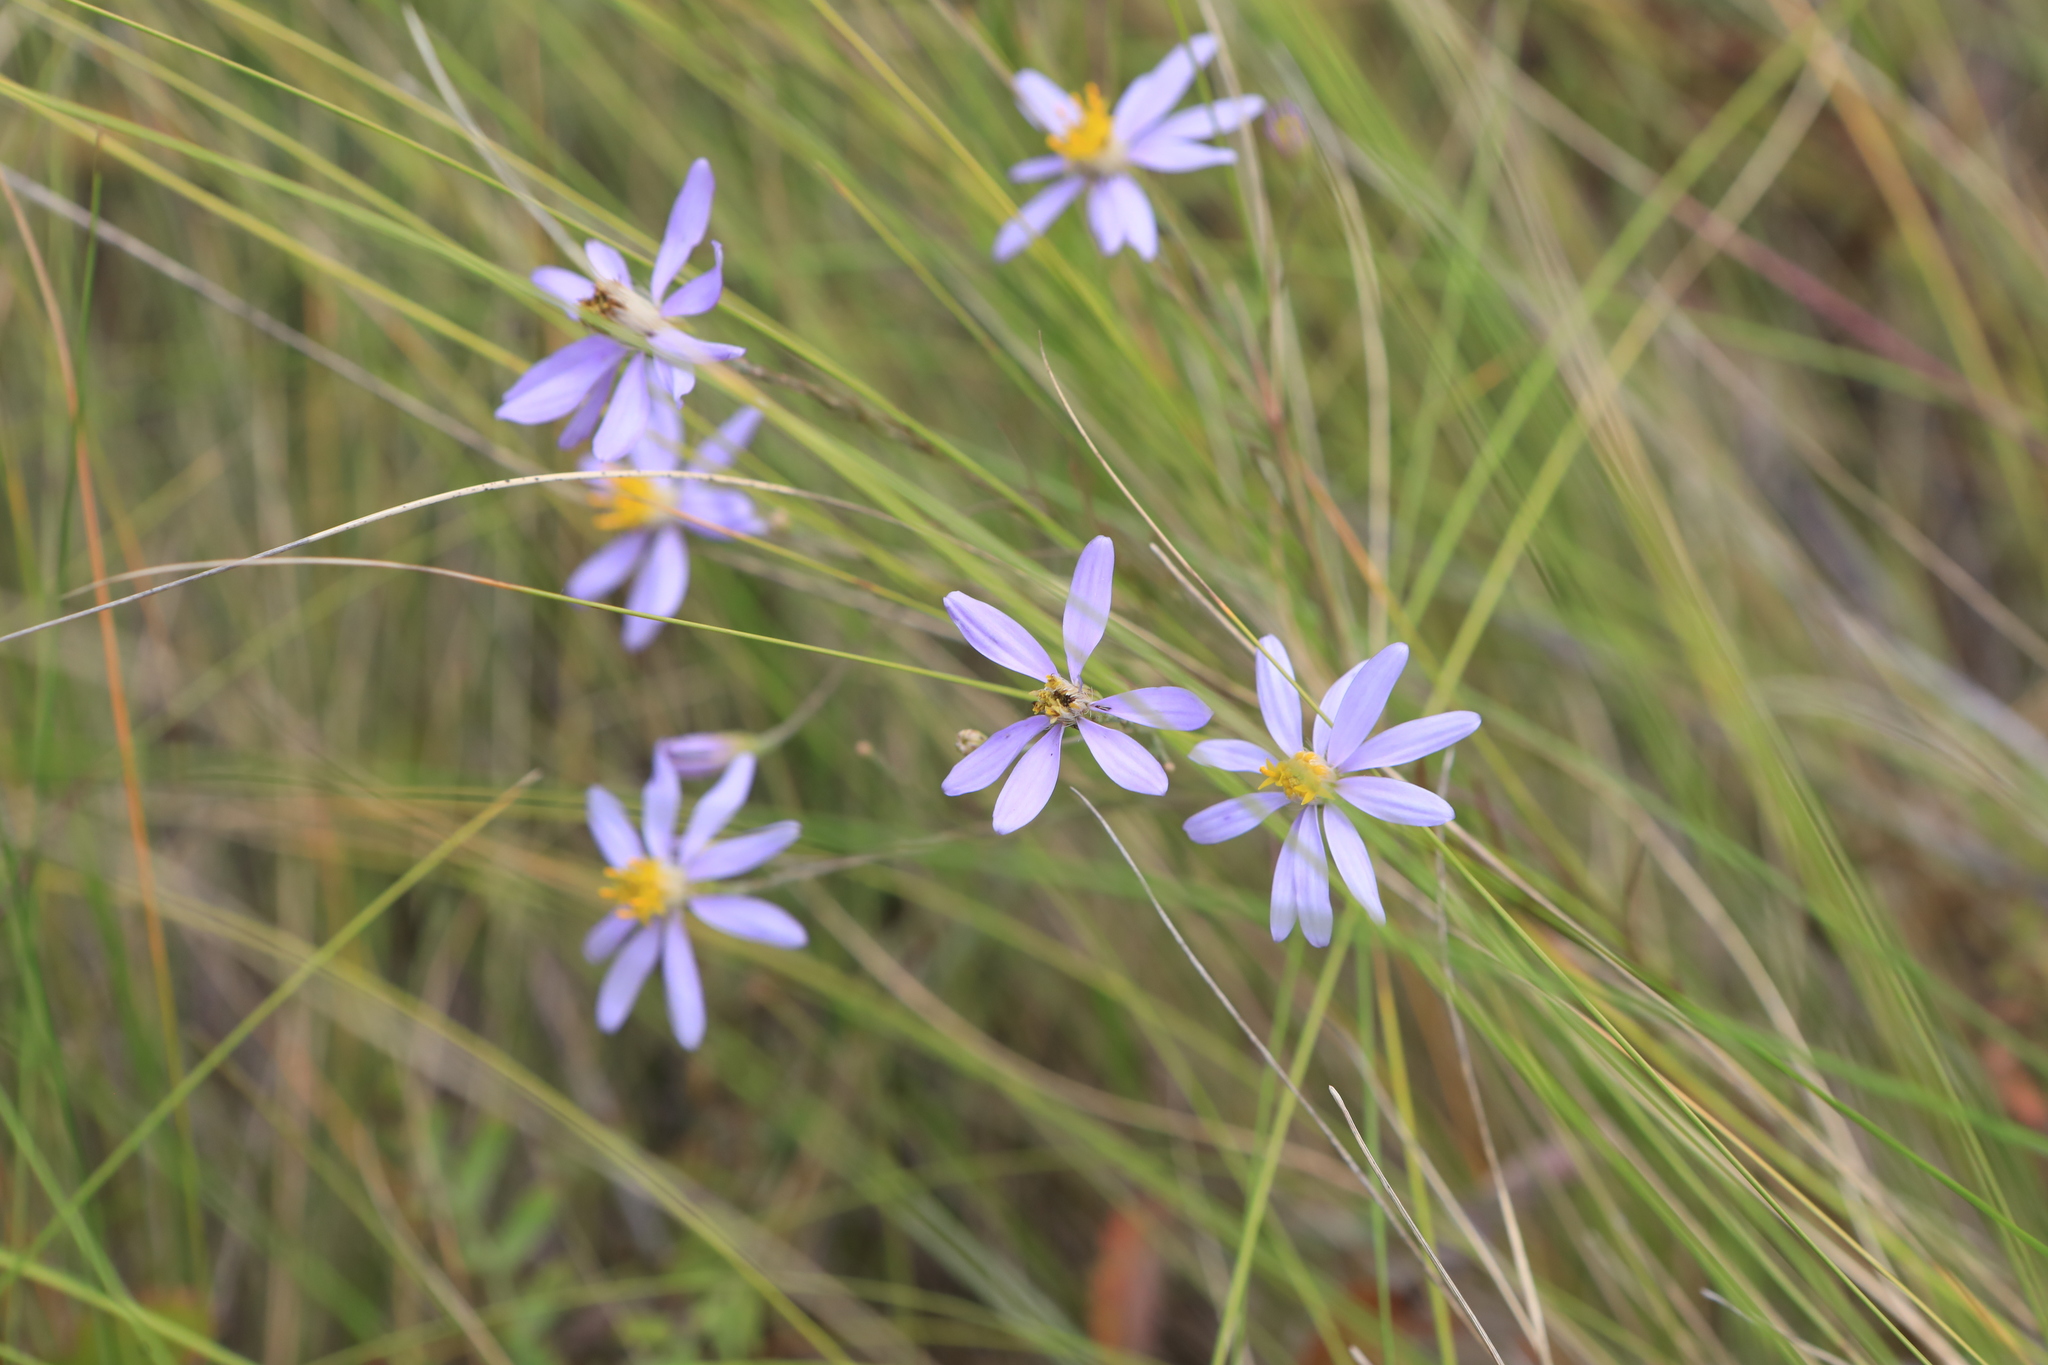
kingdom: Plantae
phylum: Tracheophyta
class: Magnoliopsida
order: Asterales
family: Asteraceae
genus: Galatella
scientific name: Galatella angustissima
